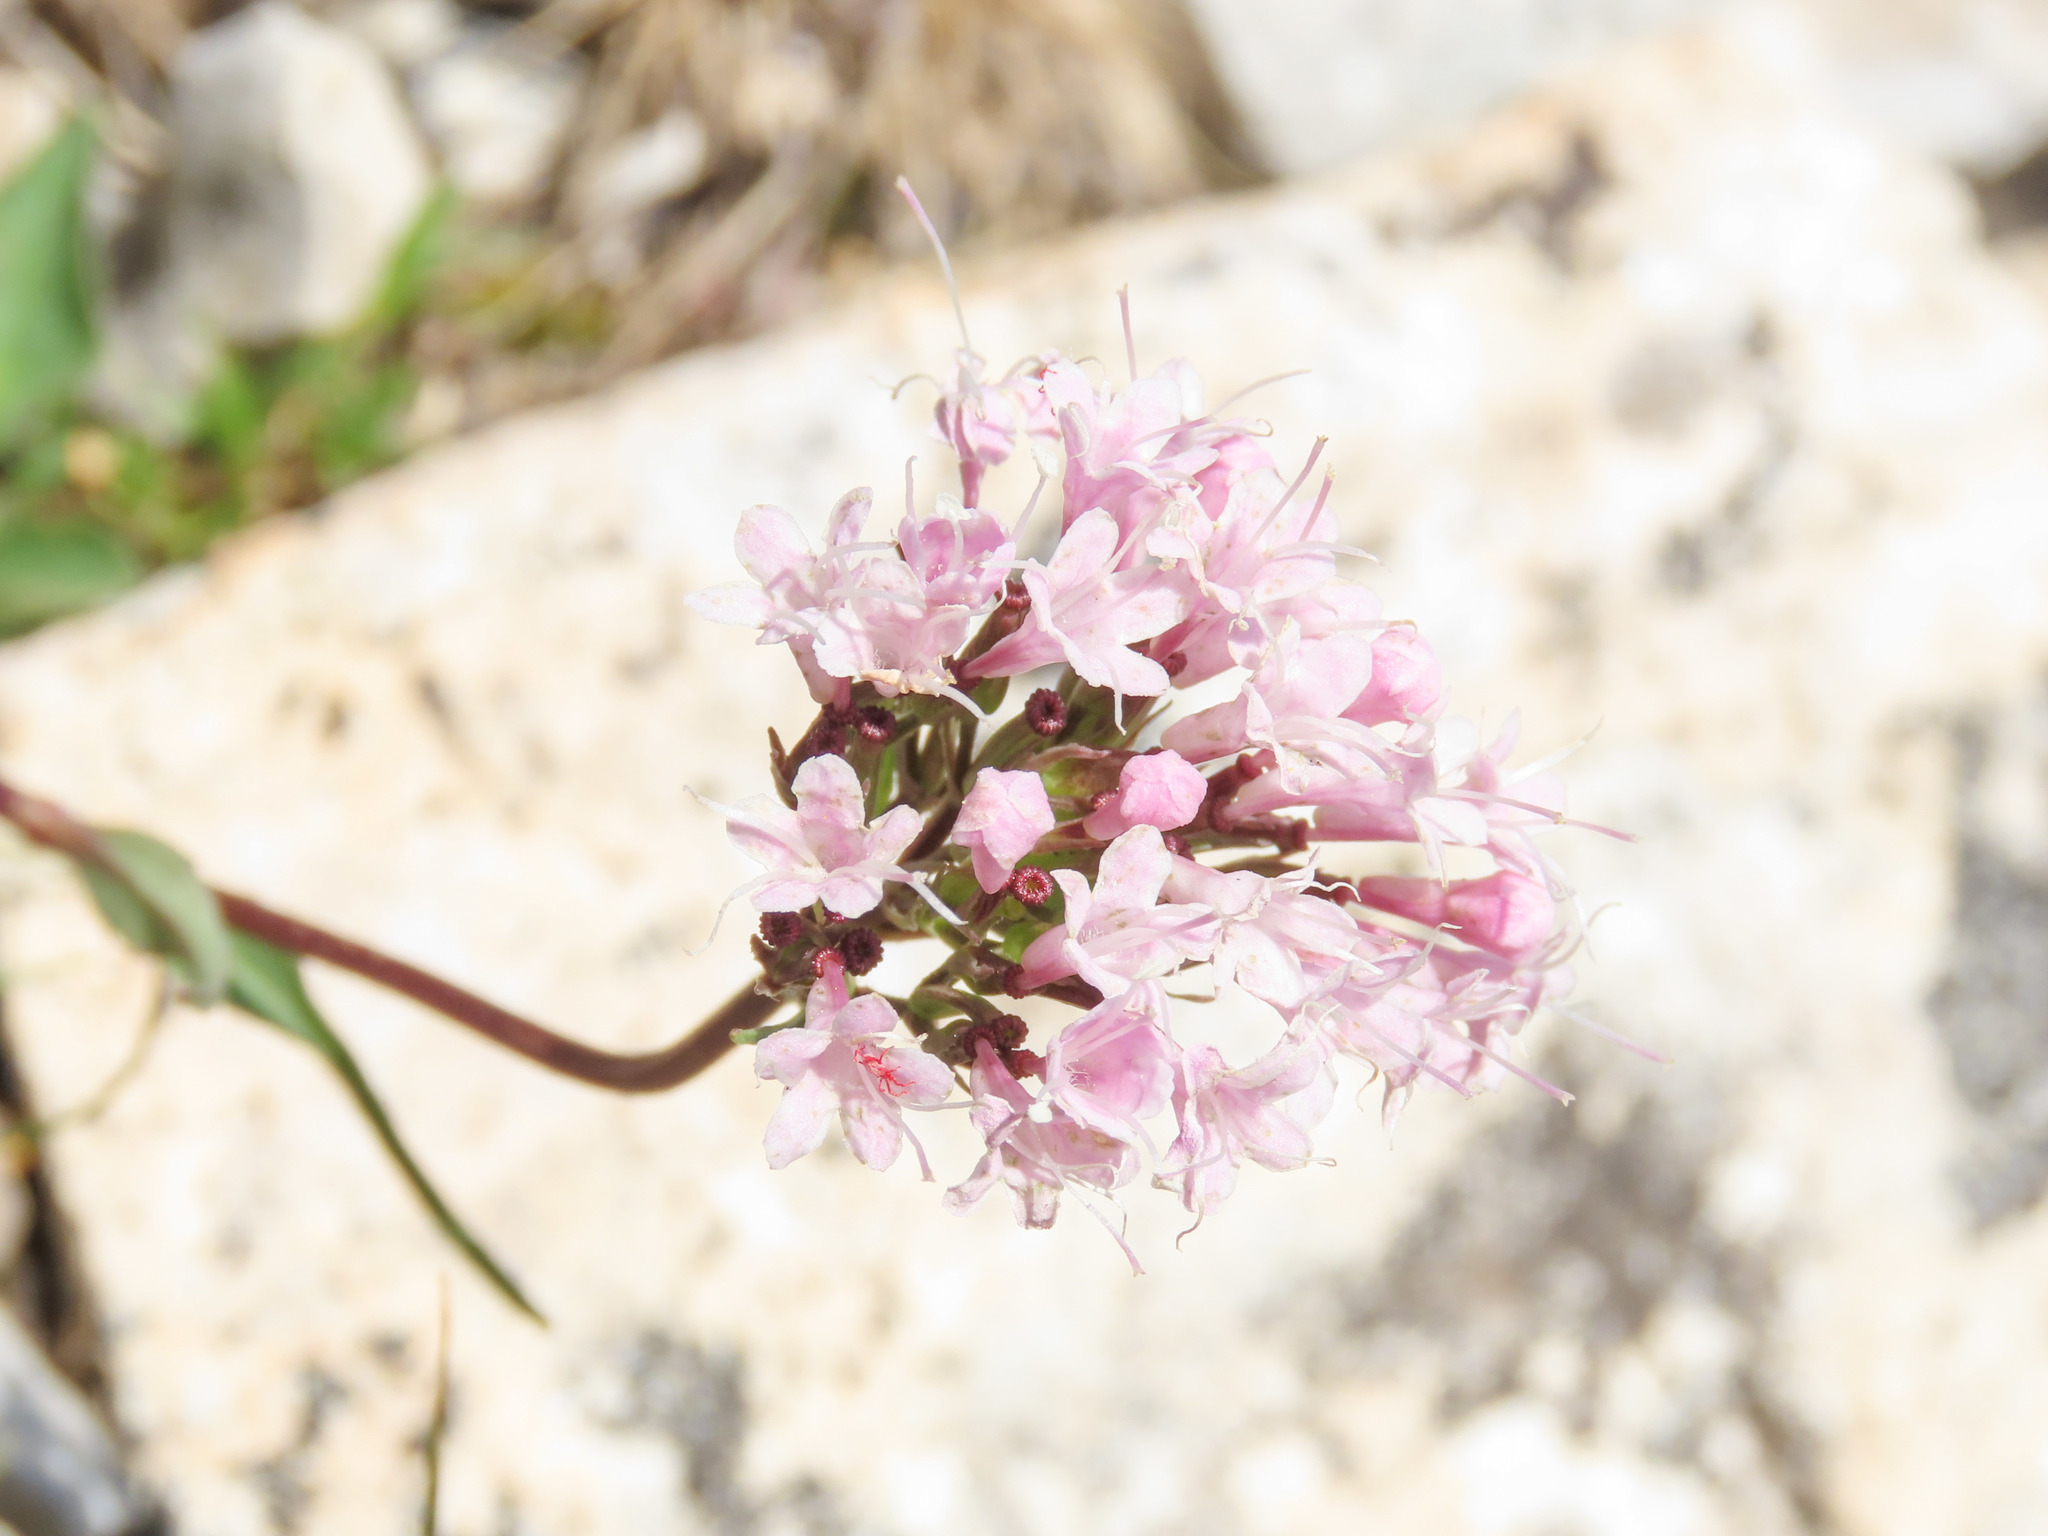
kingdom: Plantae
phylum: Tracheophyta
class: Magnoliopsida
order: Dipsacales
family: Caprifoliaceae
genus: Valeriana
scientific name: Valeriana saliunca
